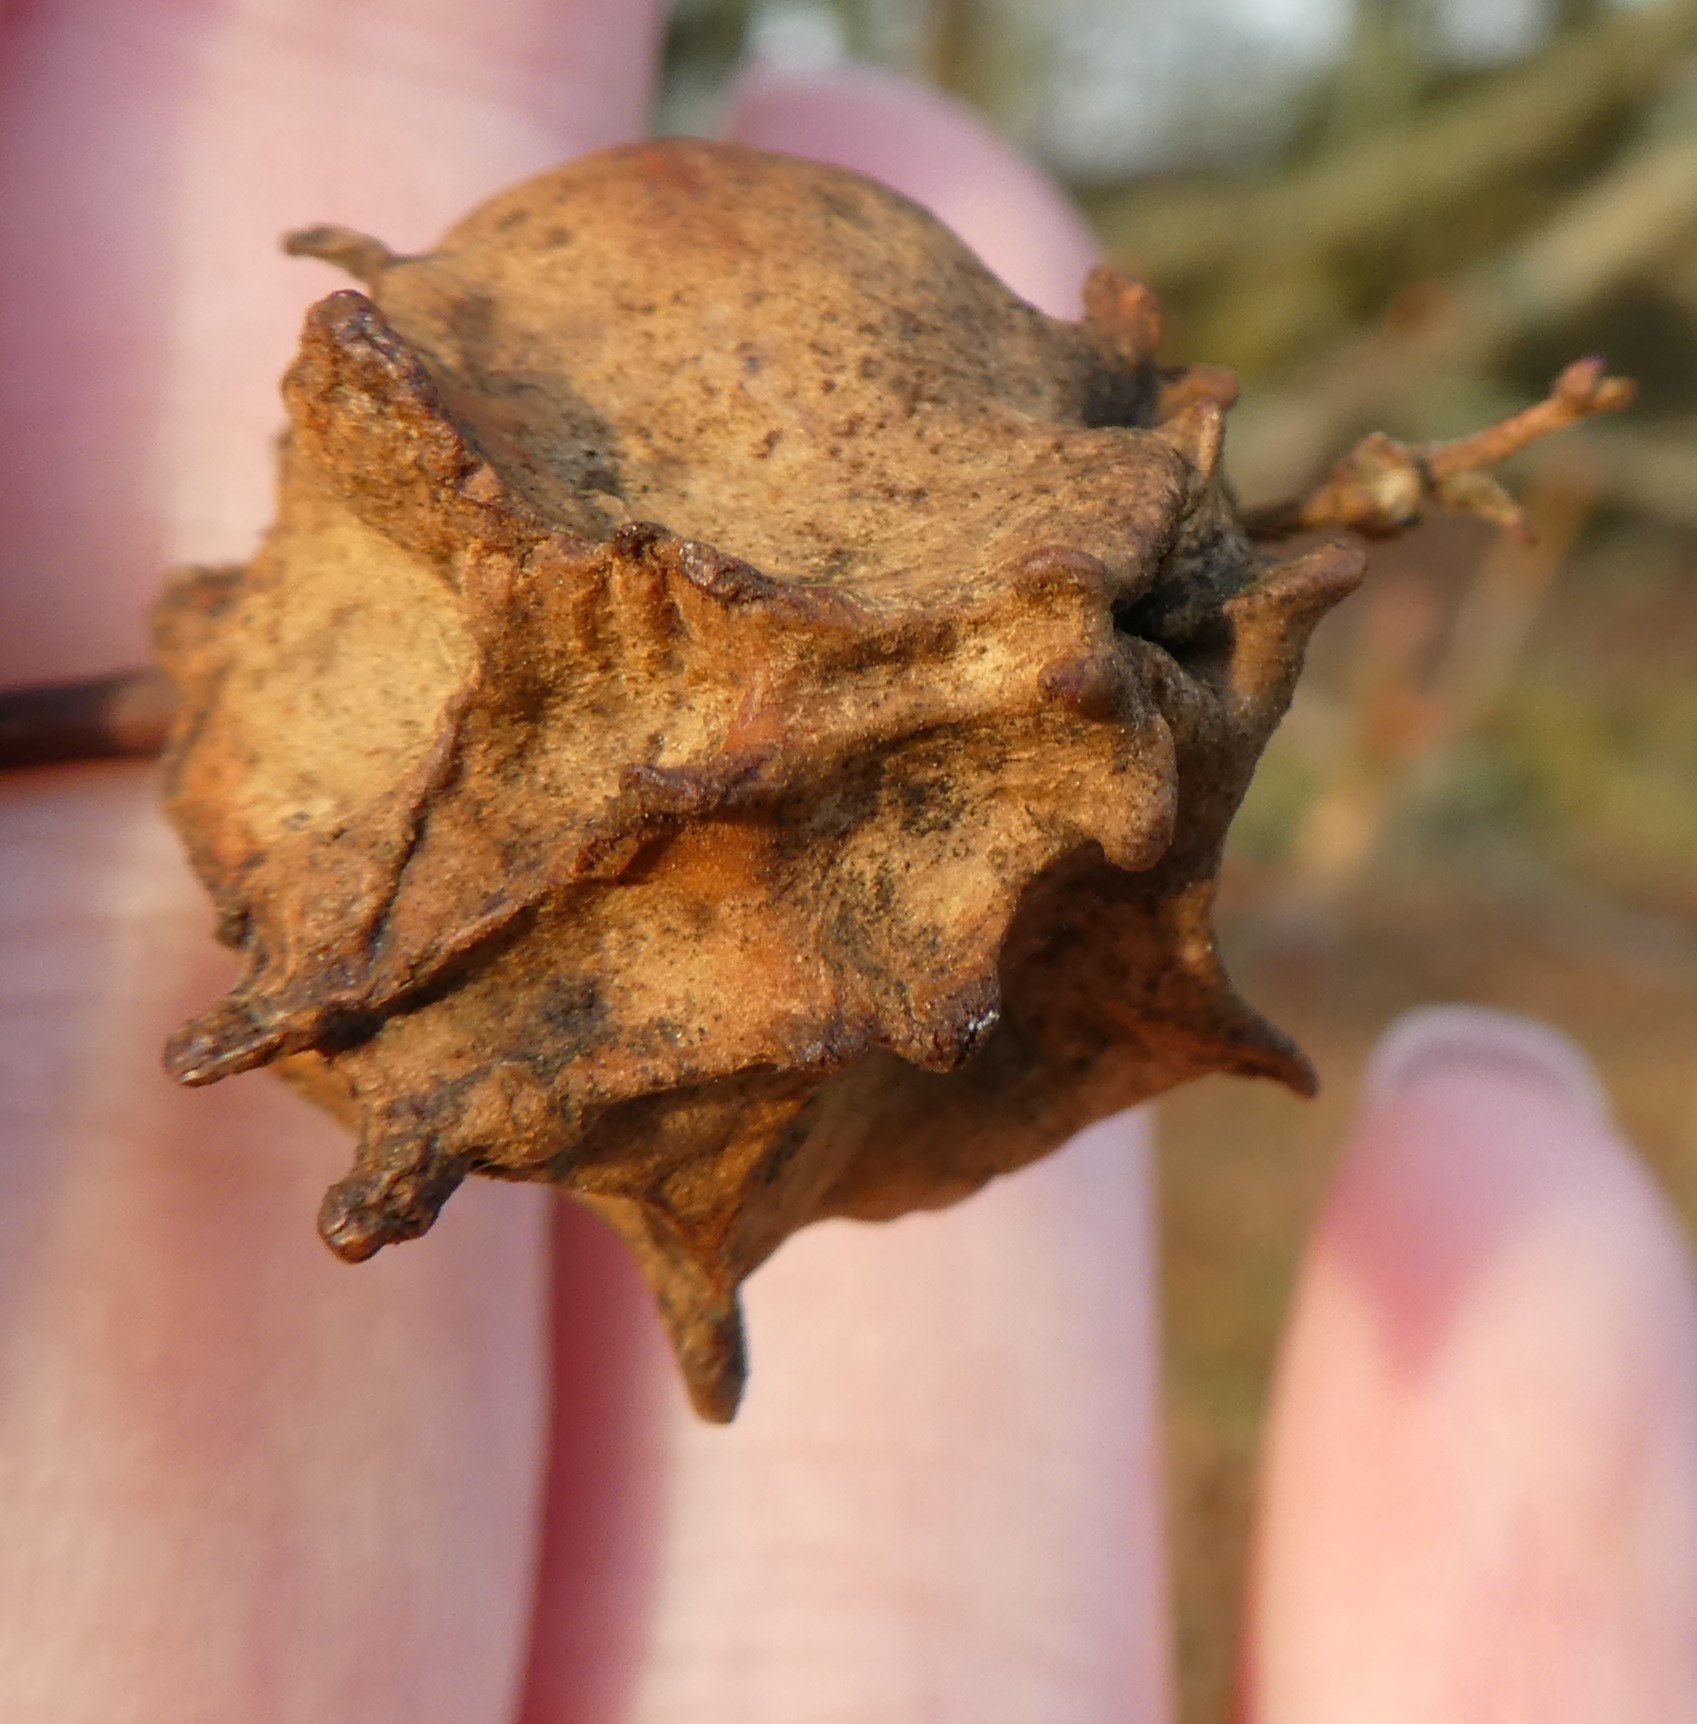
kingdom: Animalia
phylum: Arthropoda
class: Insecta
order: Hymenoptera
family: Cynipidae
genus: Andricus
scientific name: Andricus quercuscalicis
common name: Knopper gall
